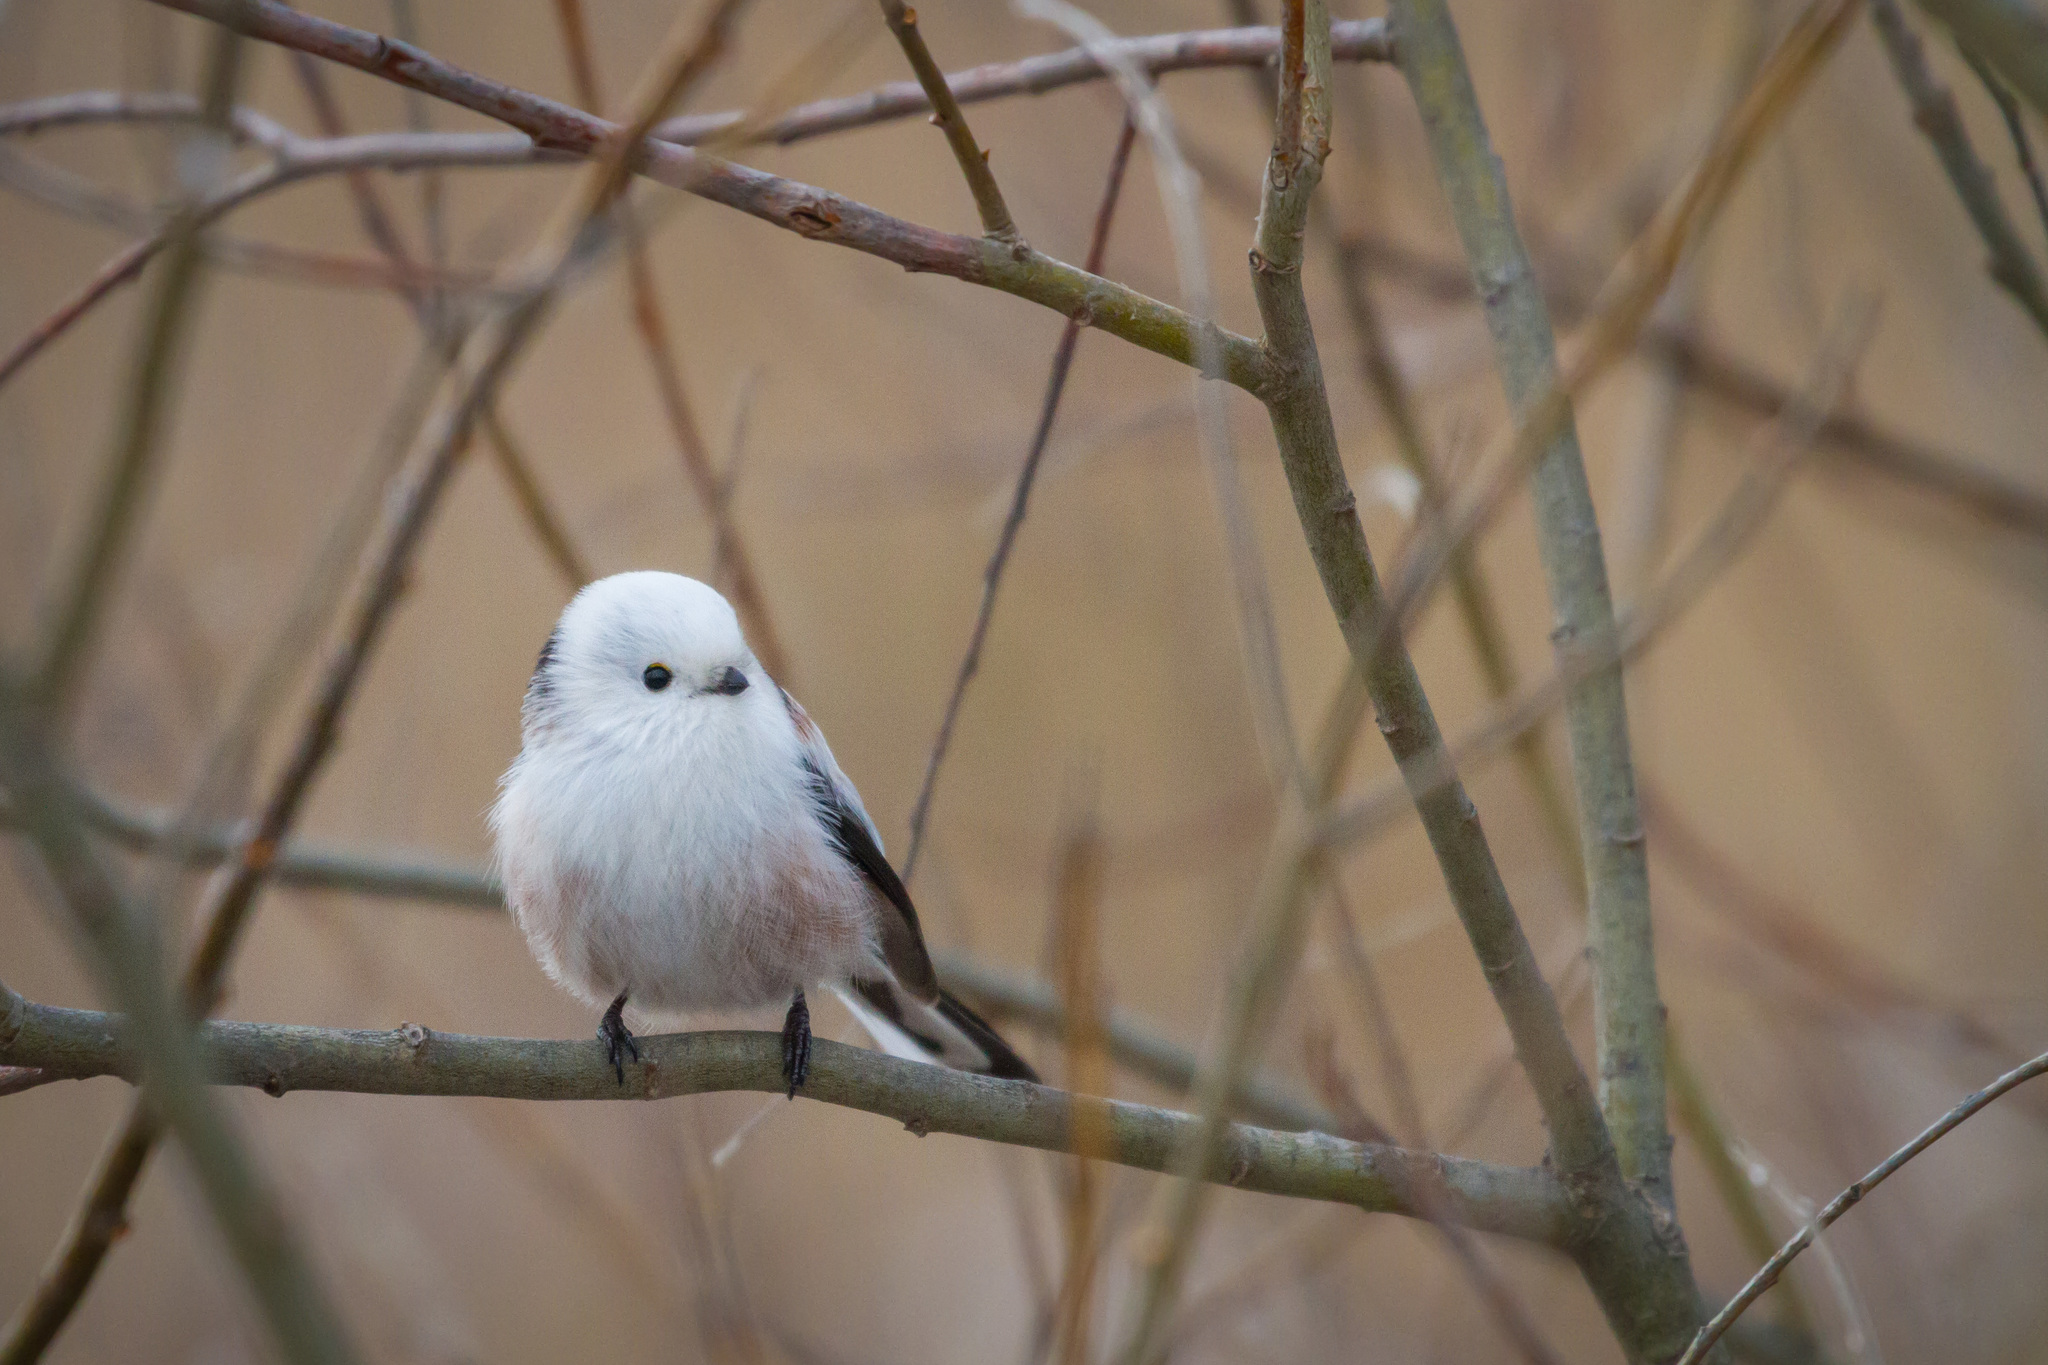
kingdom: Animalia
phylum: Chordata
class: Aves
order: Passeriformes
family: Aegithalidae
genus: Aegithalos
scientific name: Aegithalos caudatus
